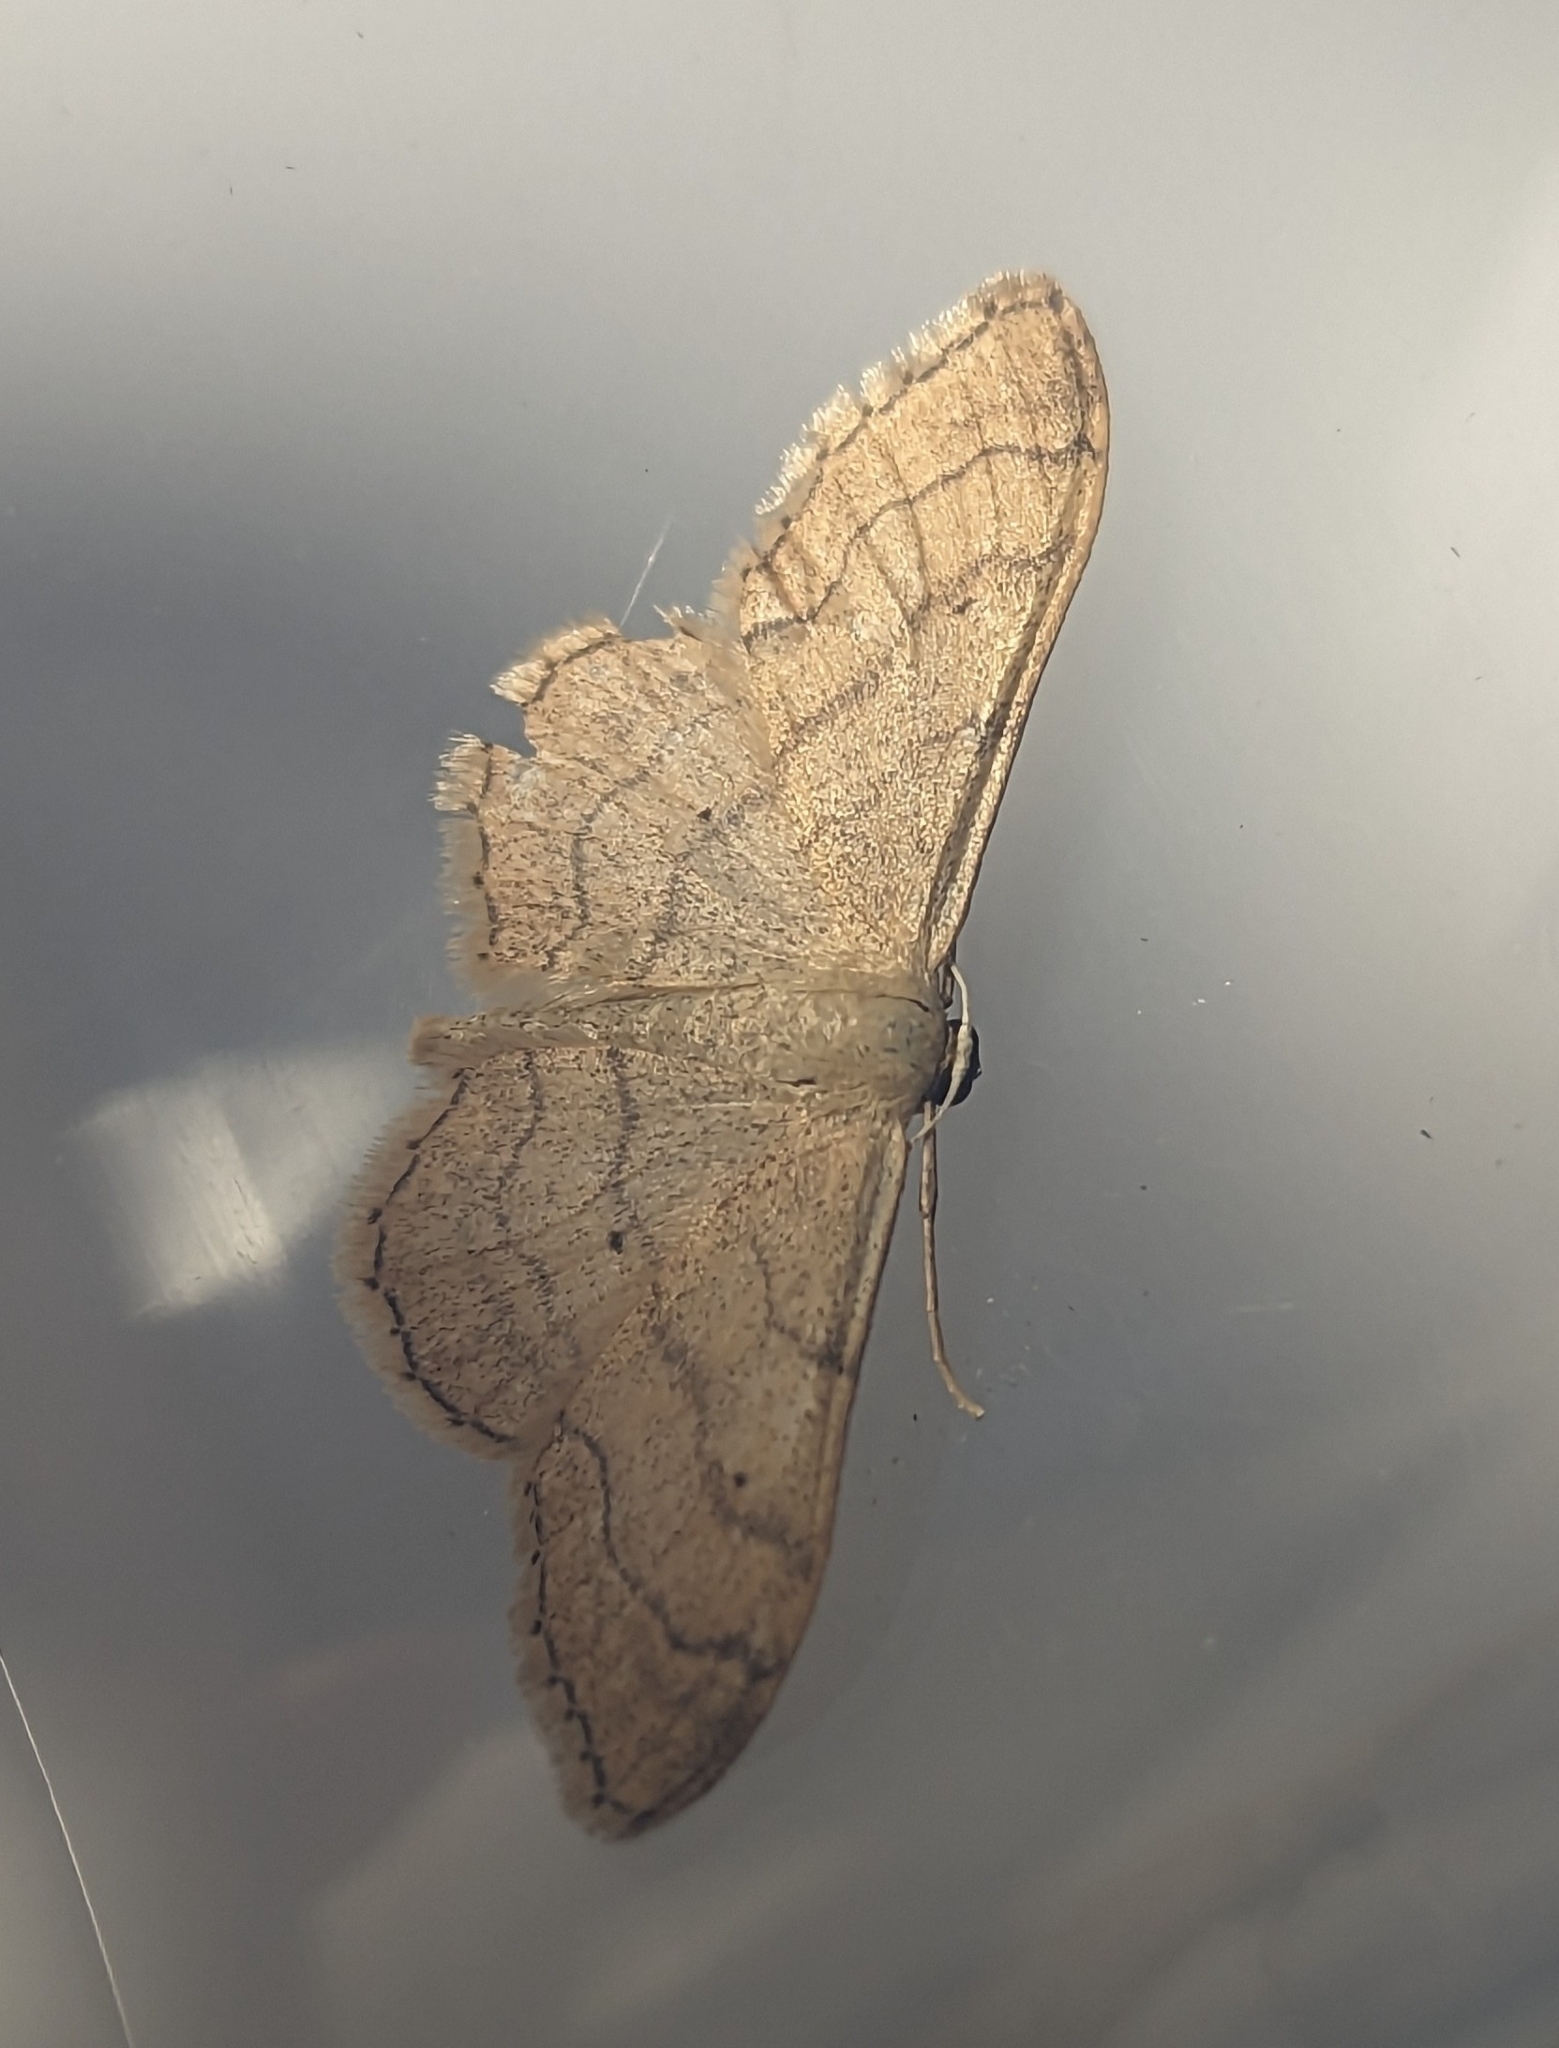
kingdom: Animalia
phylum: Arthropoda
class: Insecta
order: Lepidoptera
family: Geometridae
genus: Idaea
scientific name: Idaea aversata
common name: Riband wave
